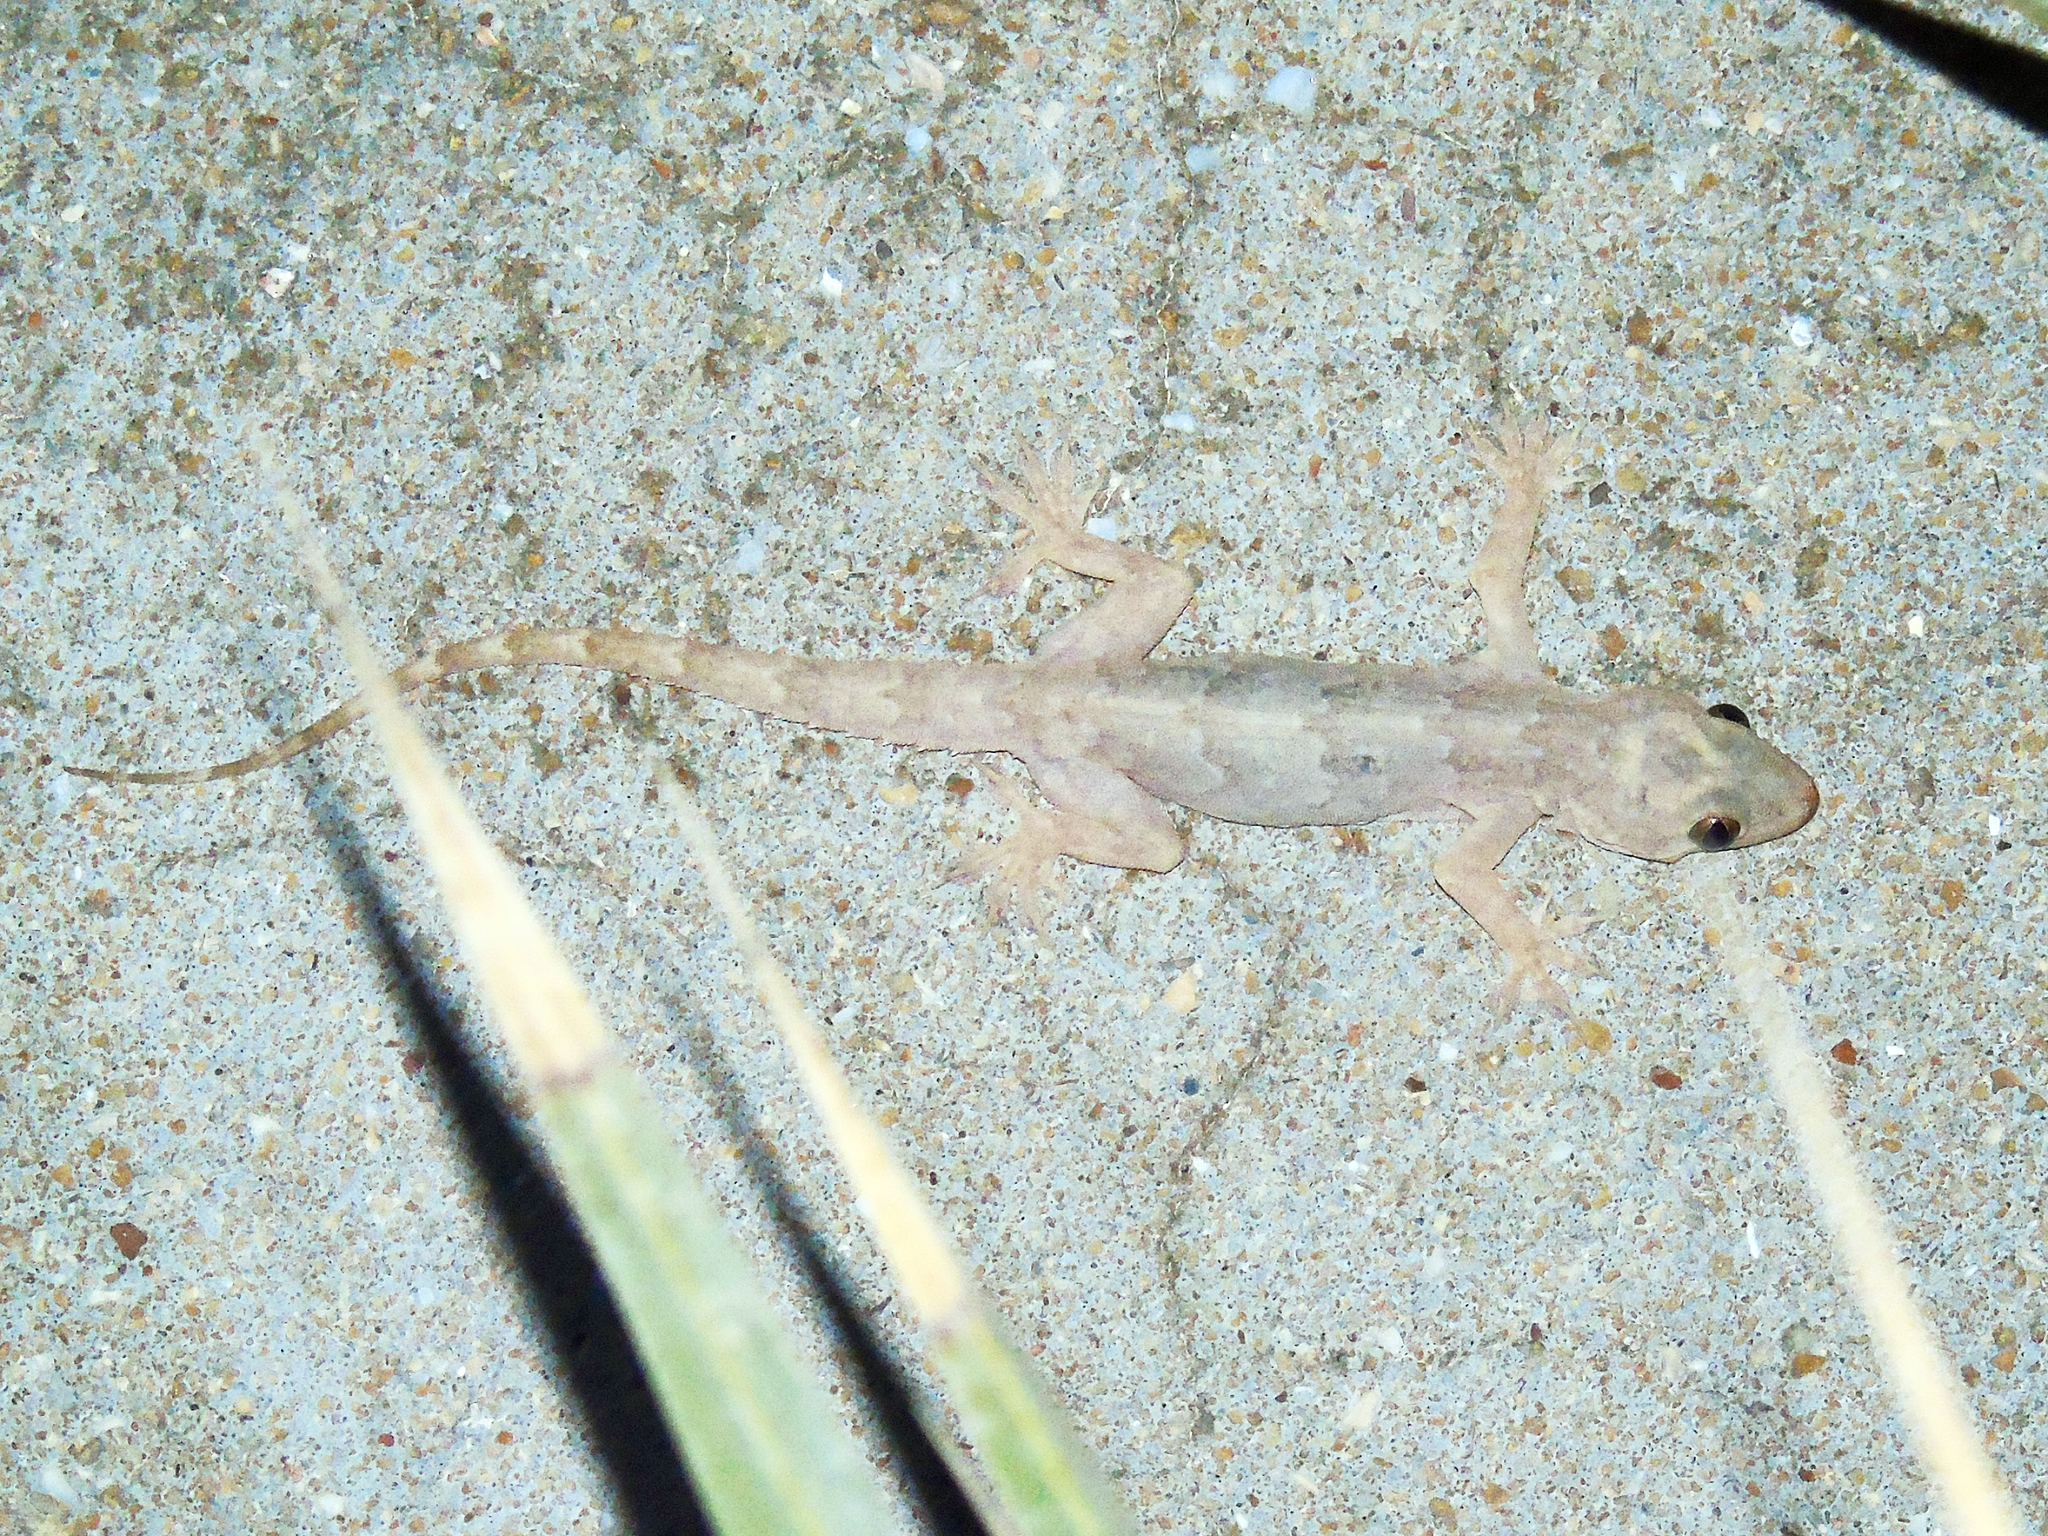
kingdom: Animalia
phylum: Chordata
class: Squamata
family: Gekkonidae
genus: Hemidactylus
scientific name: Hemidactylus flaviviridis
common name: Northern house gecko
